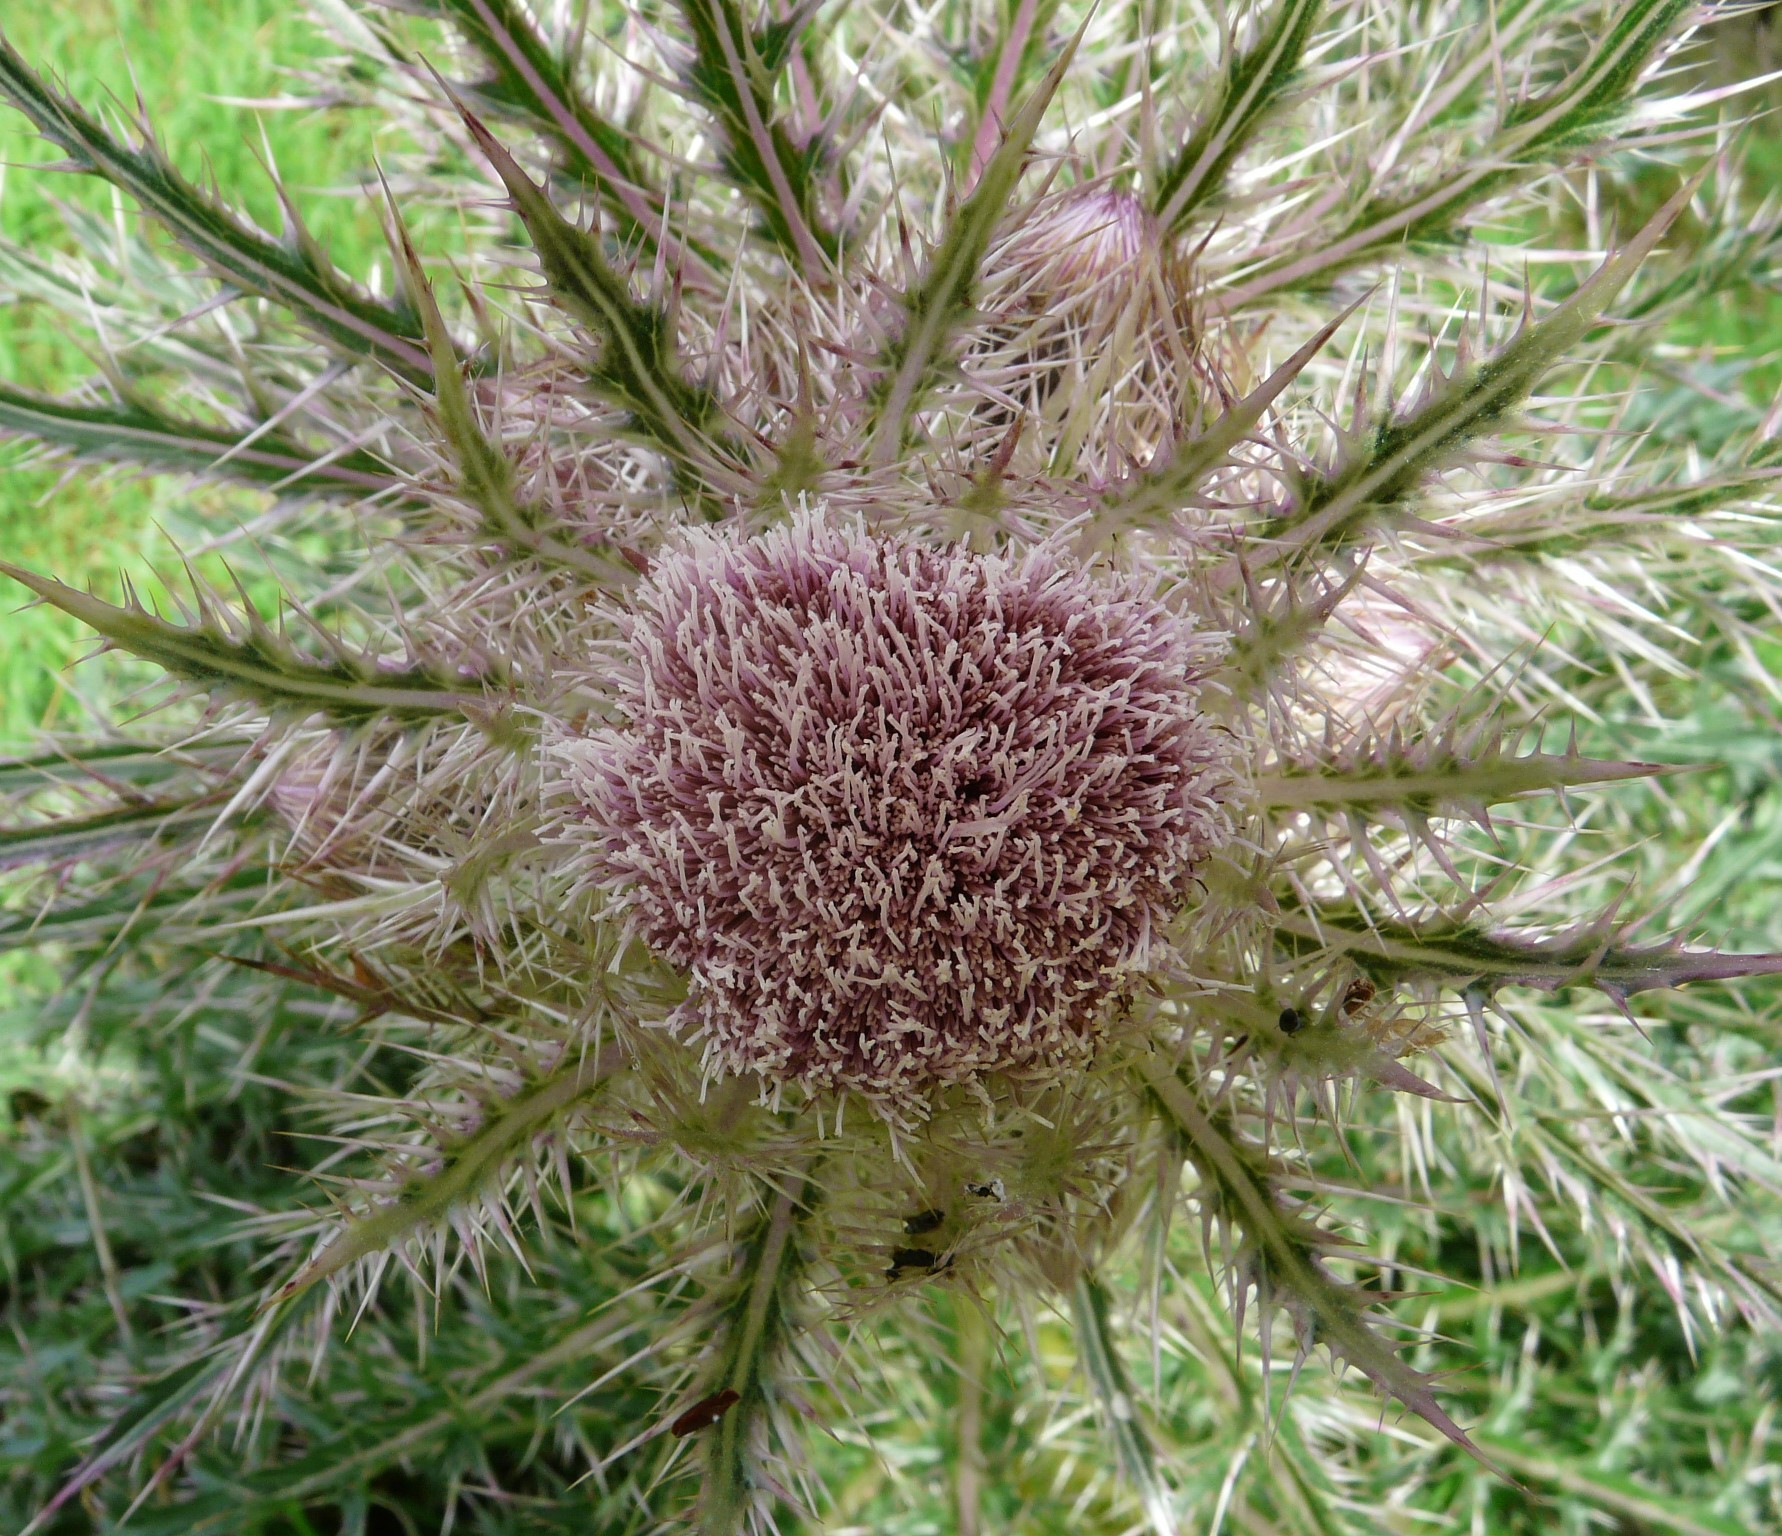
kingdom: Plantae
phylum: Tracheophyta
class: Magnoliopsida
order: Asterales
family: Asteraceae
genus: Cirsium
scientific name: Cirsium horridulum
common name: Bristly thistle
